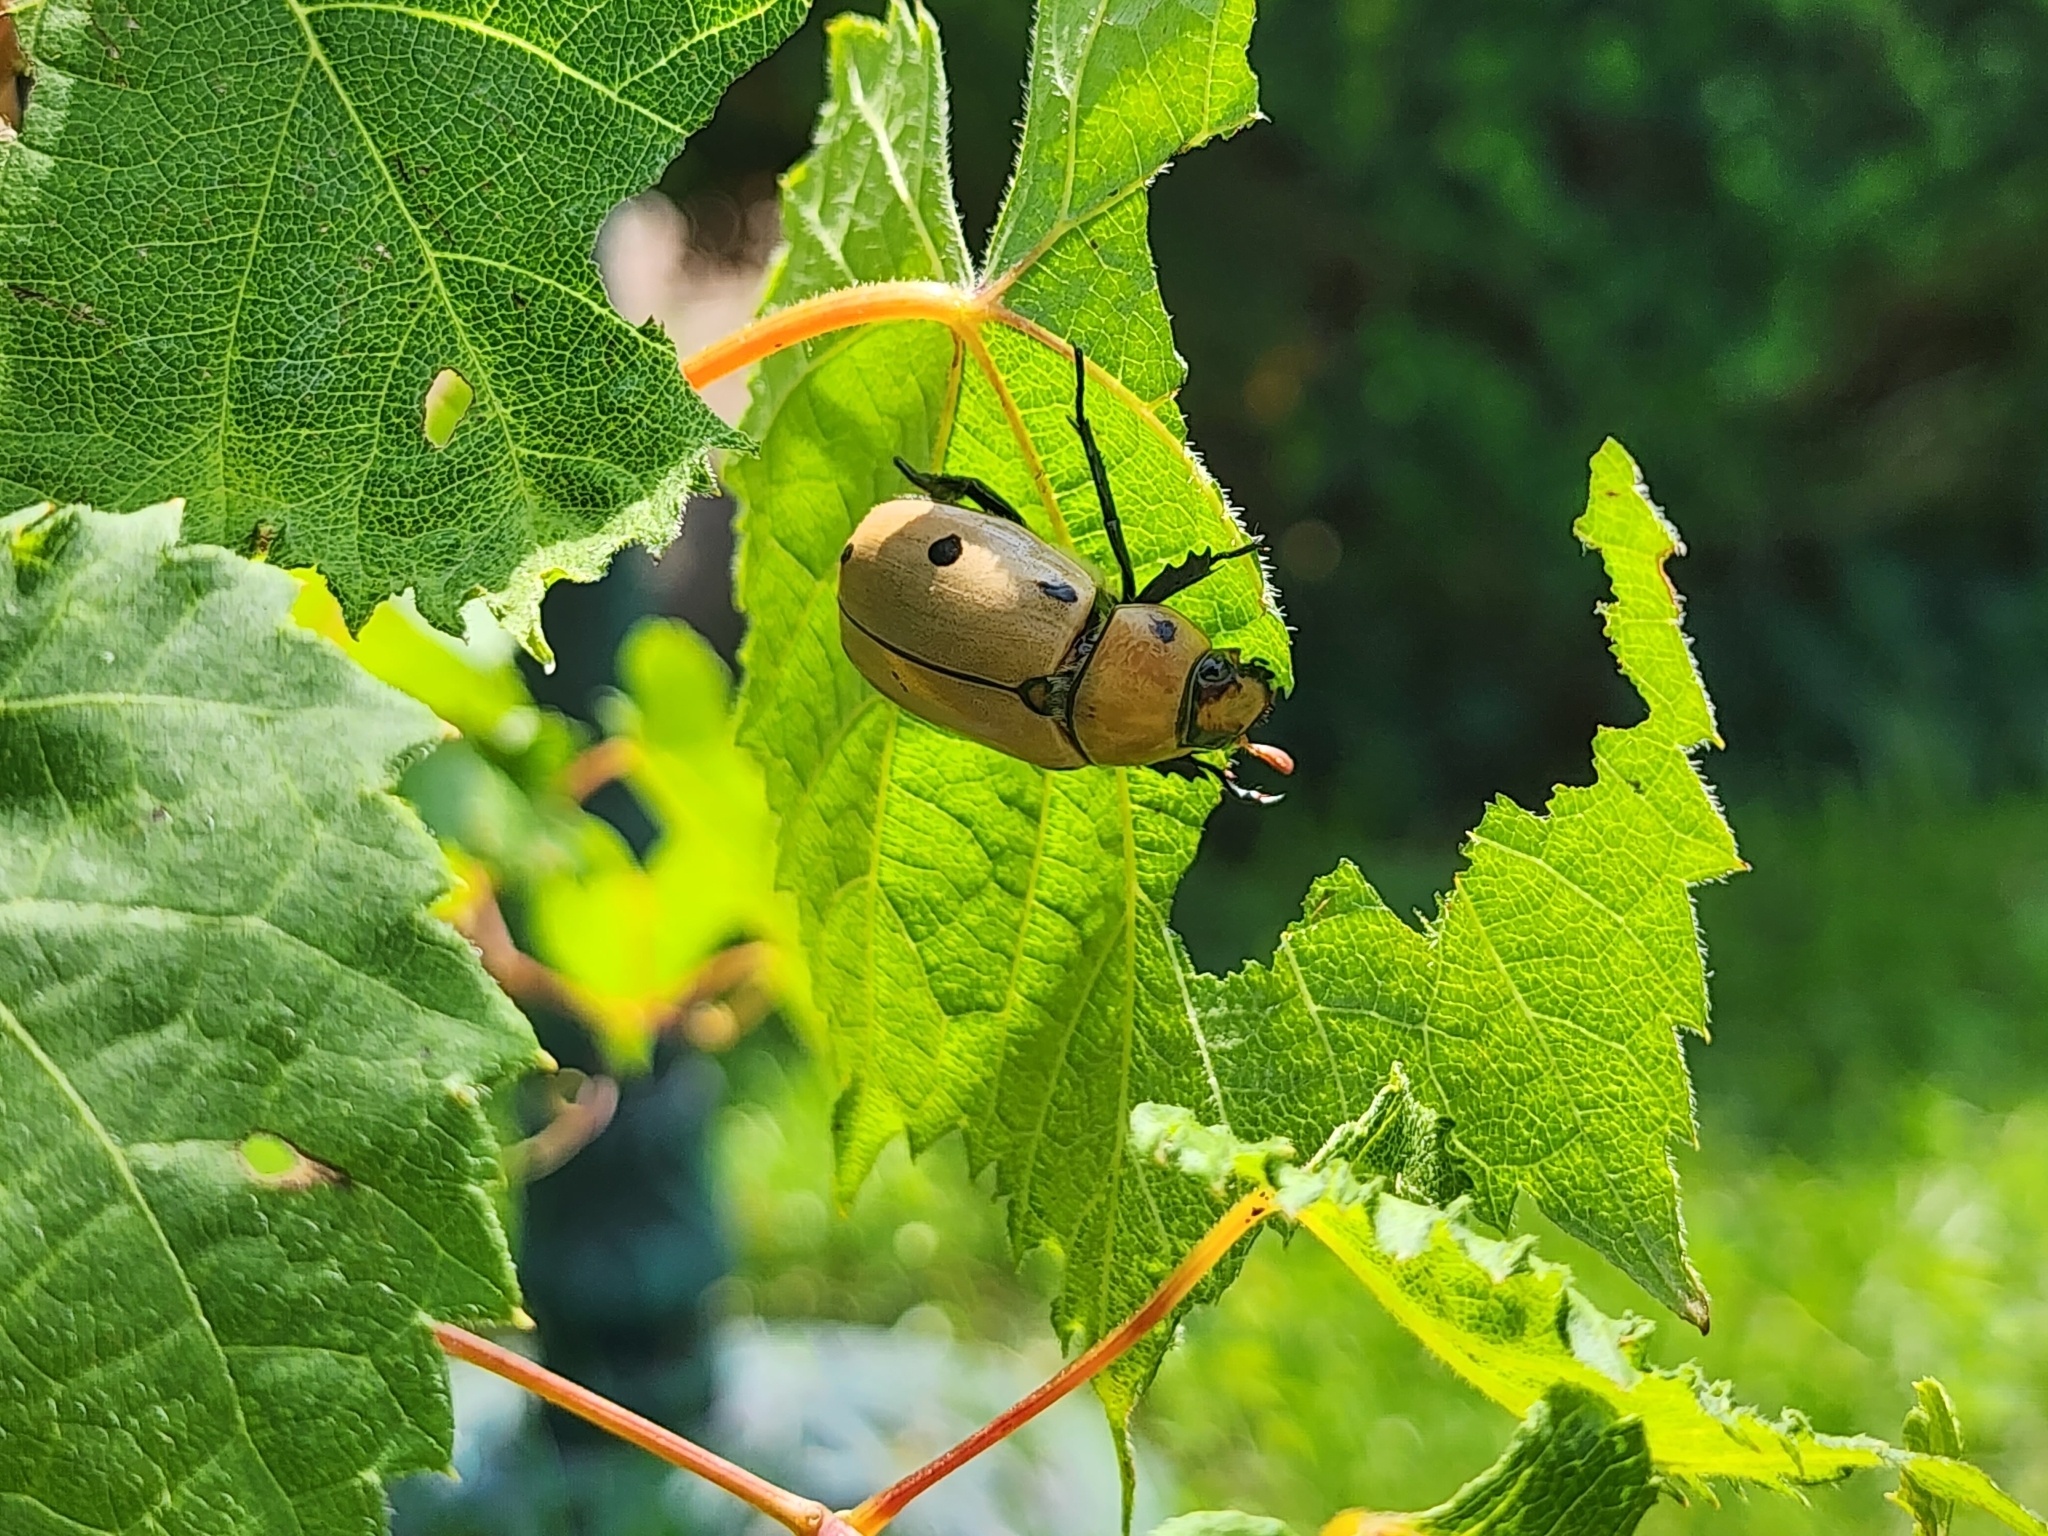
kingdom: Animalia
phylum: Arthropoda
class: Insecta
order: Coleoptera
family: Scarabaeidae
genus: Pelidnota
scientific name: Pelidnota punctata
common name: Grapevine beetle
